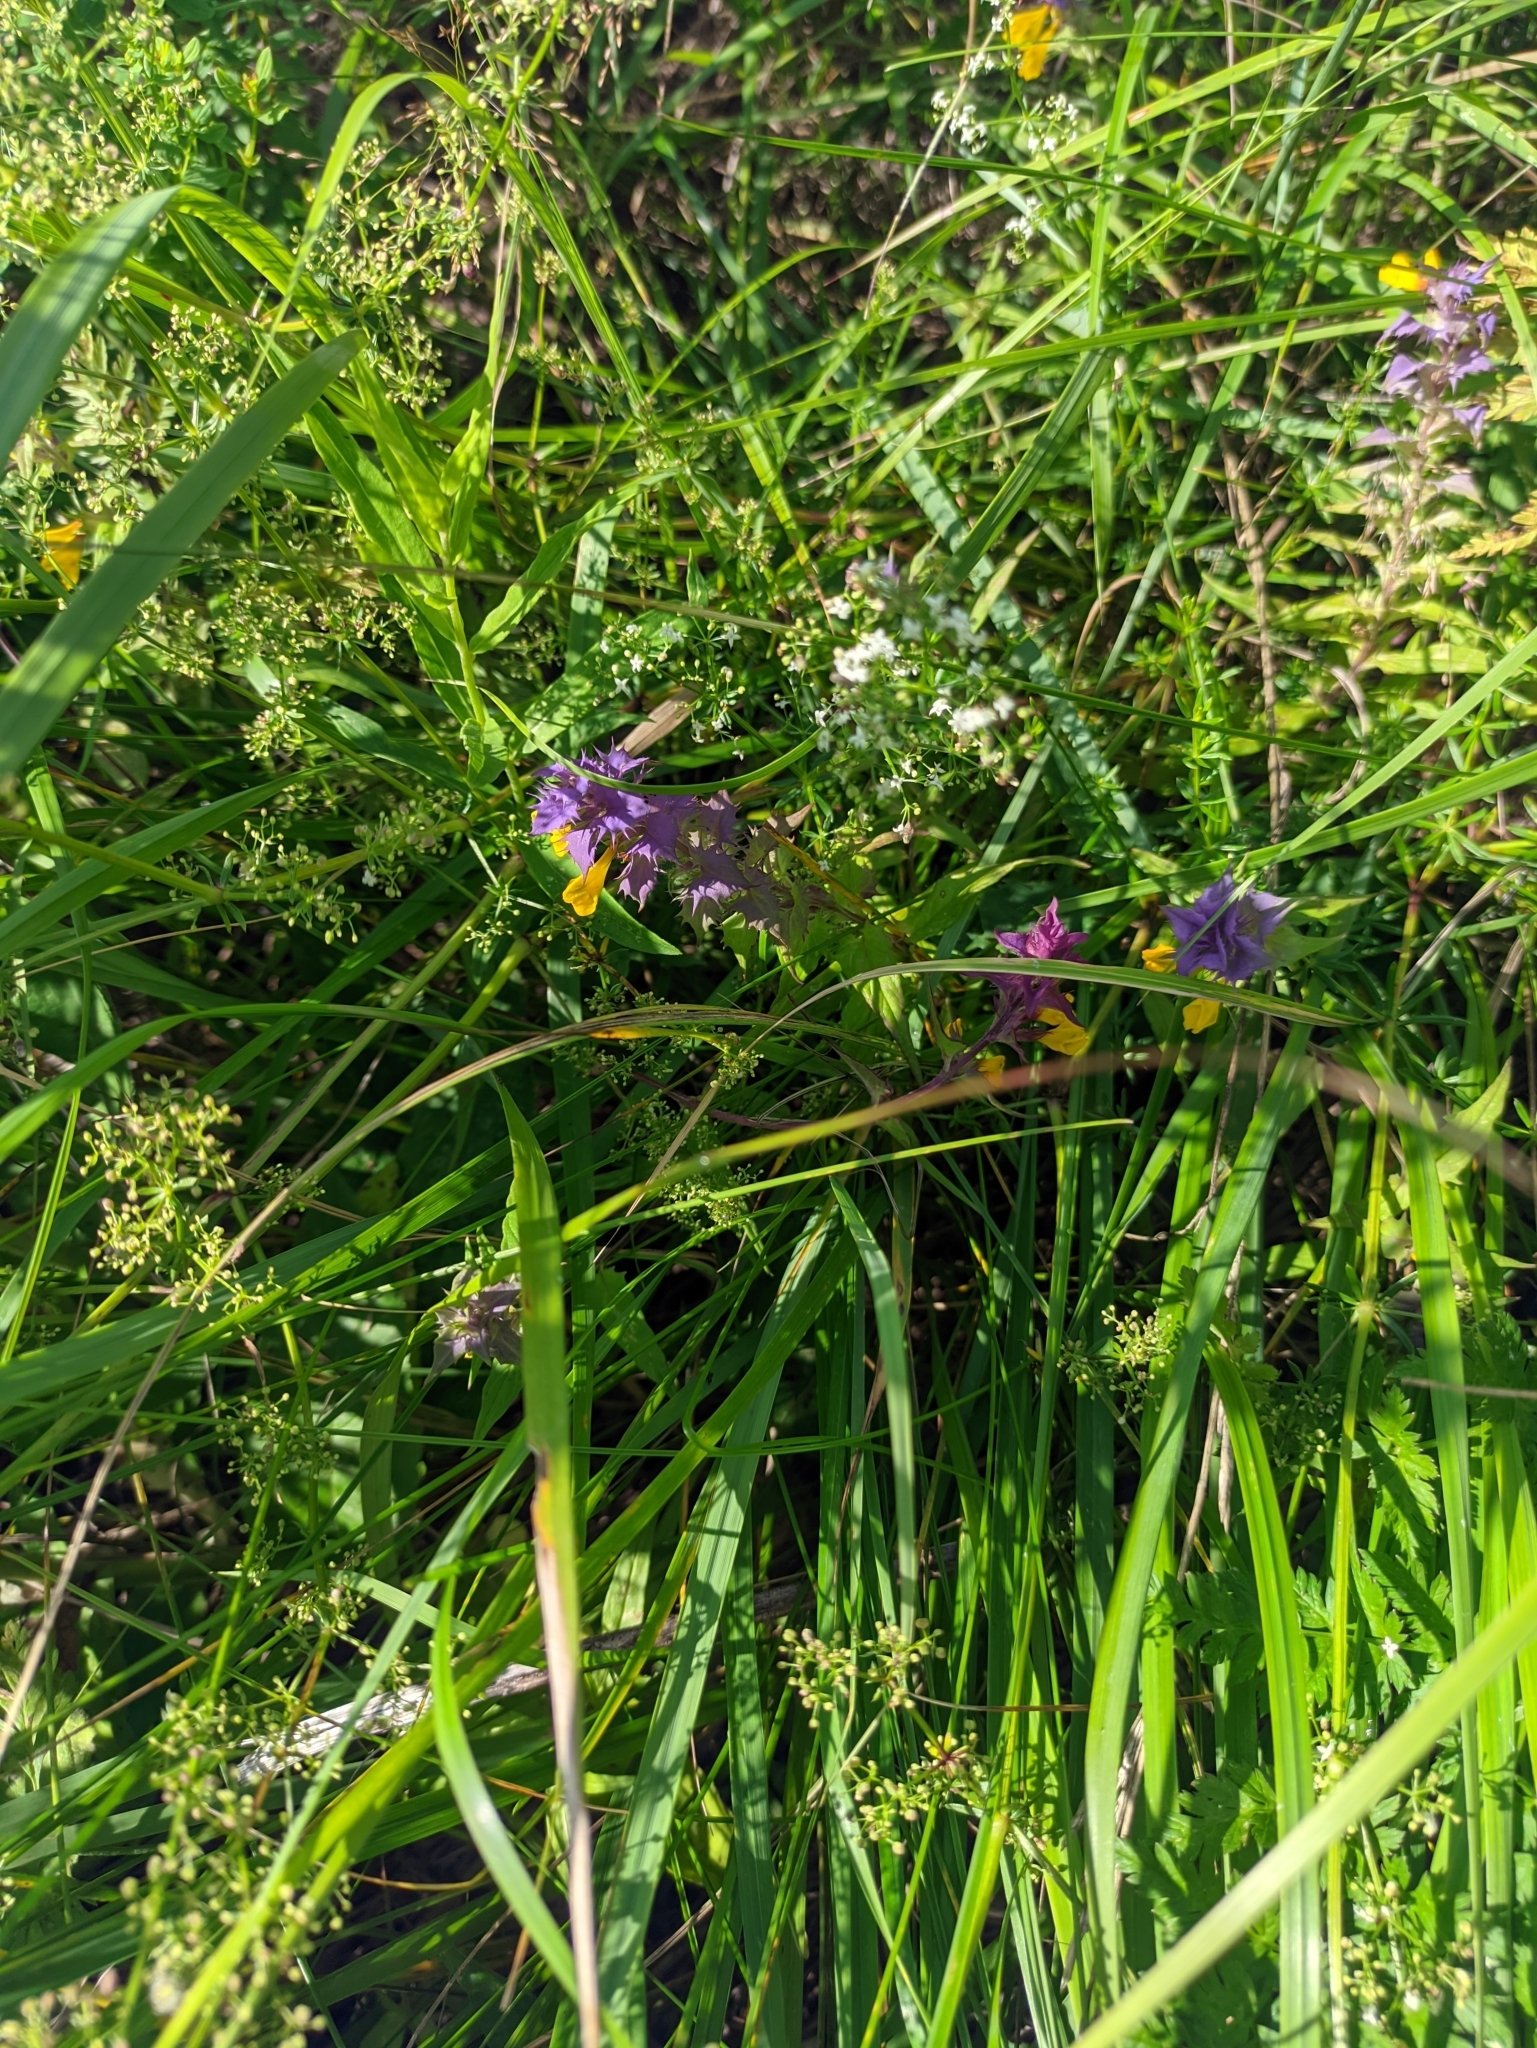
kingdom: Plantae
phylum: Tracheophyta
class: Magnoliopsida
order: Lamiales
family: Orobanchaceae
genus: Melampyrum
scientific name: Melampyrum nemorosum
